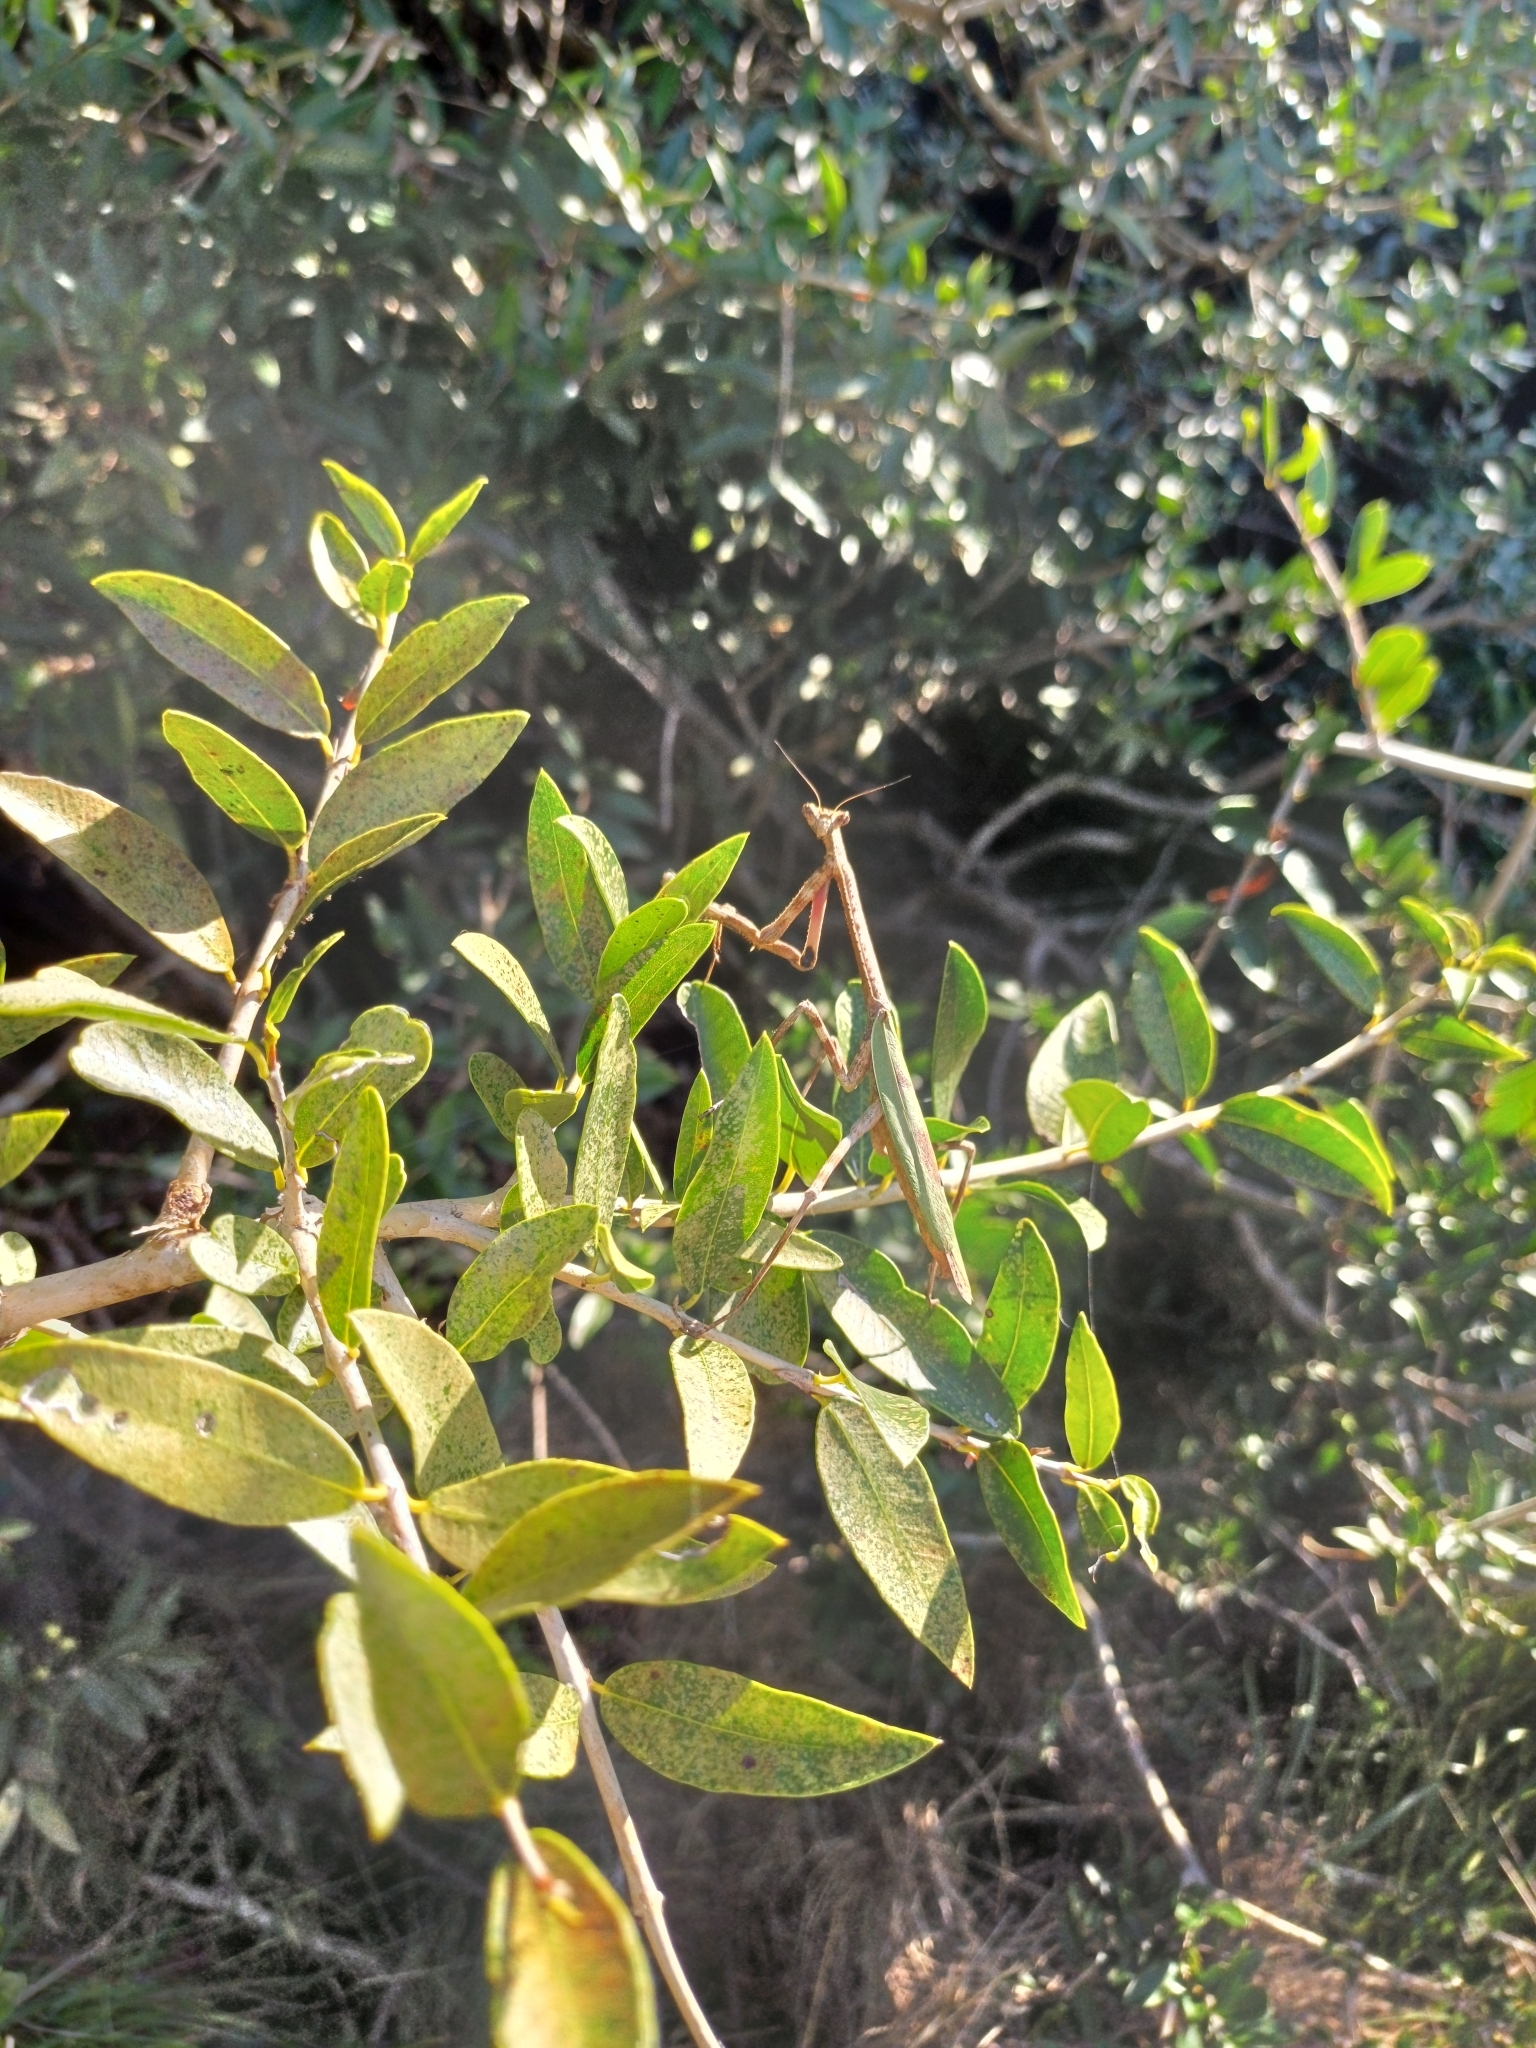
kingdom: Animalia
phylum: Arthropoda
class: Insecta
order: Mantodea
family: Mantidae
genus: Pseudovates
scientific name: Pseudovates iheringi
